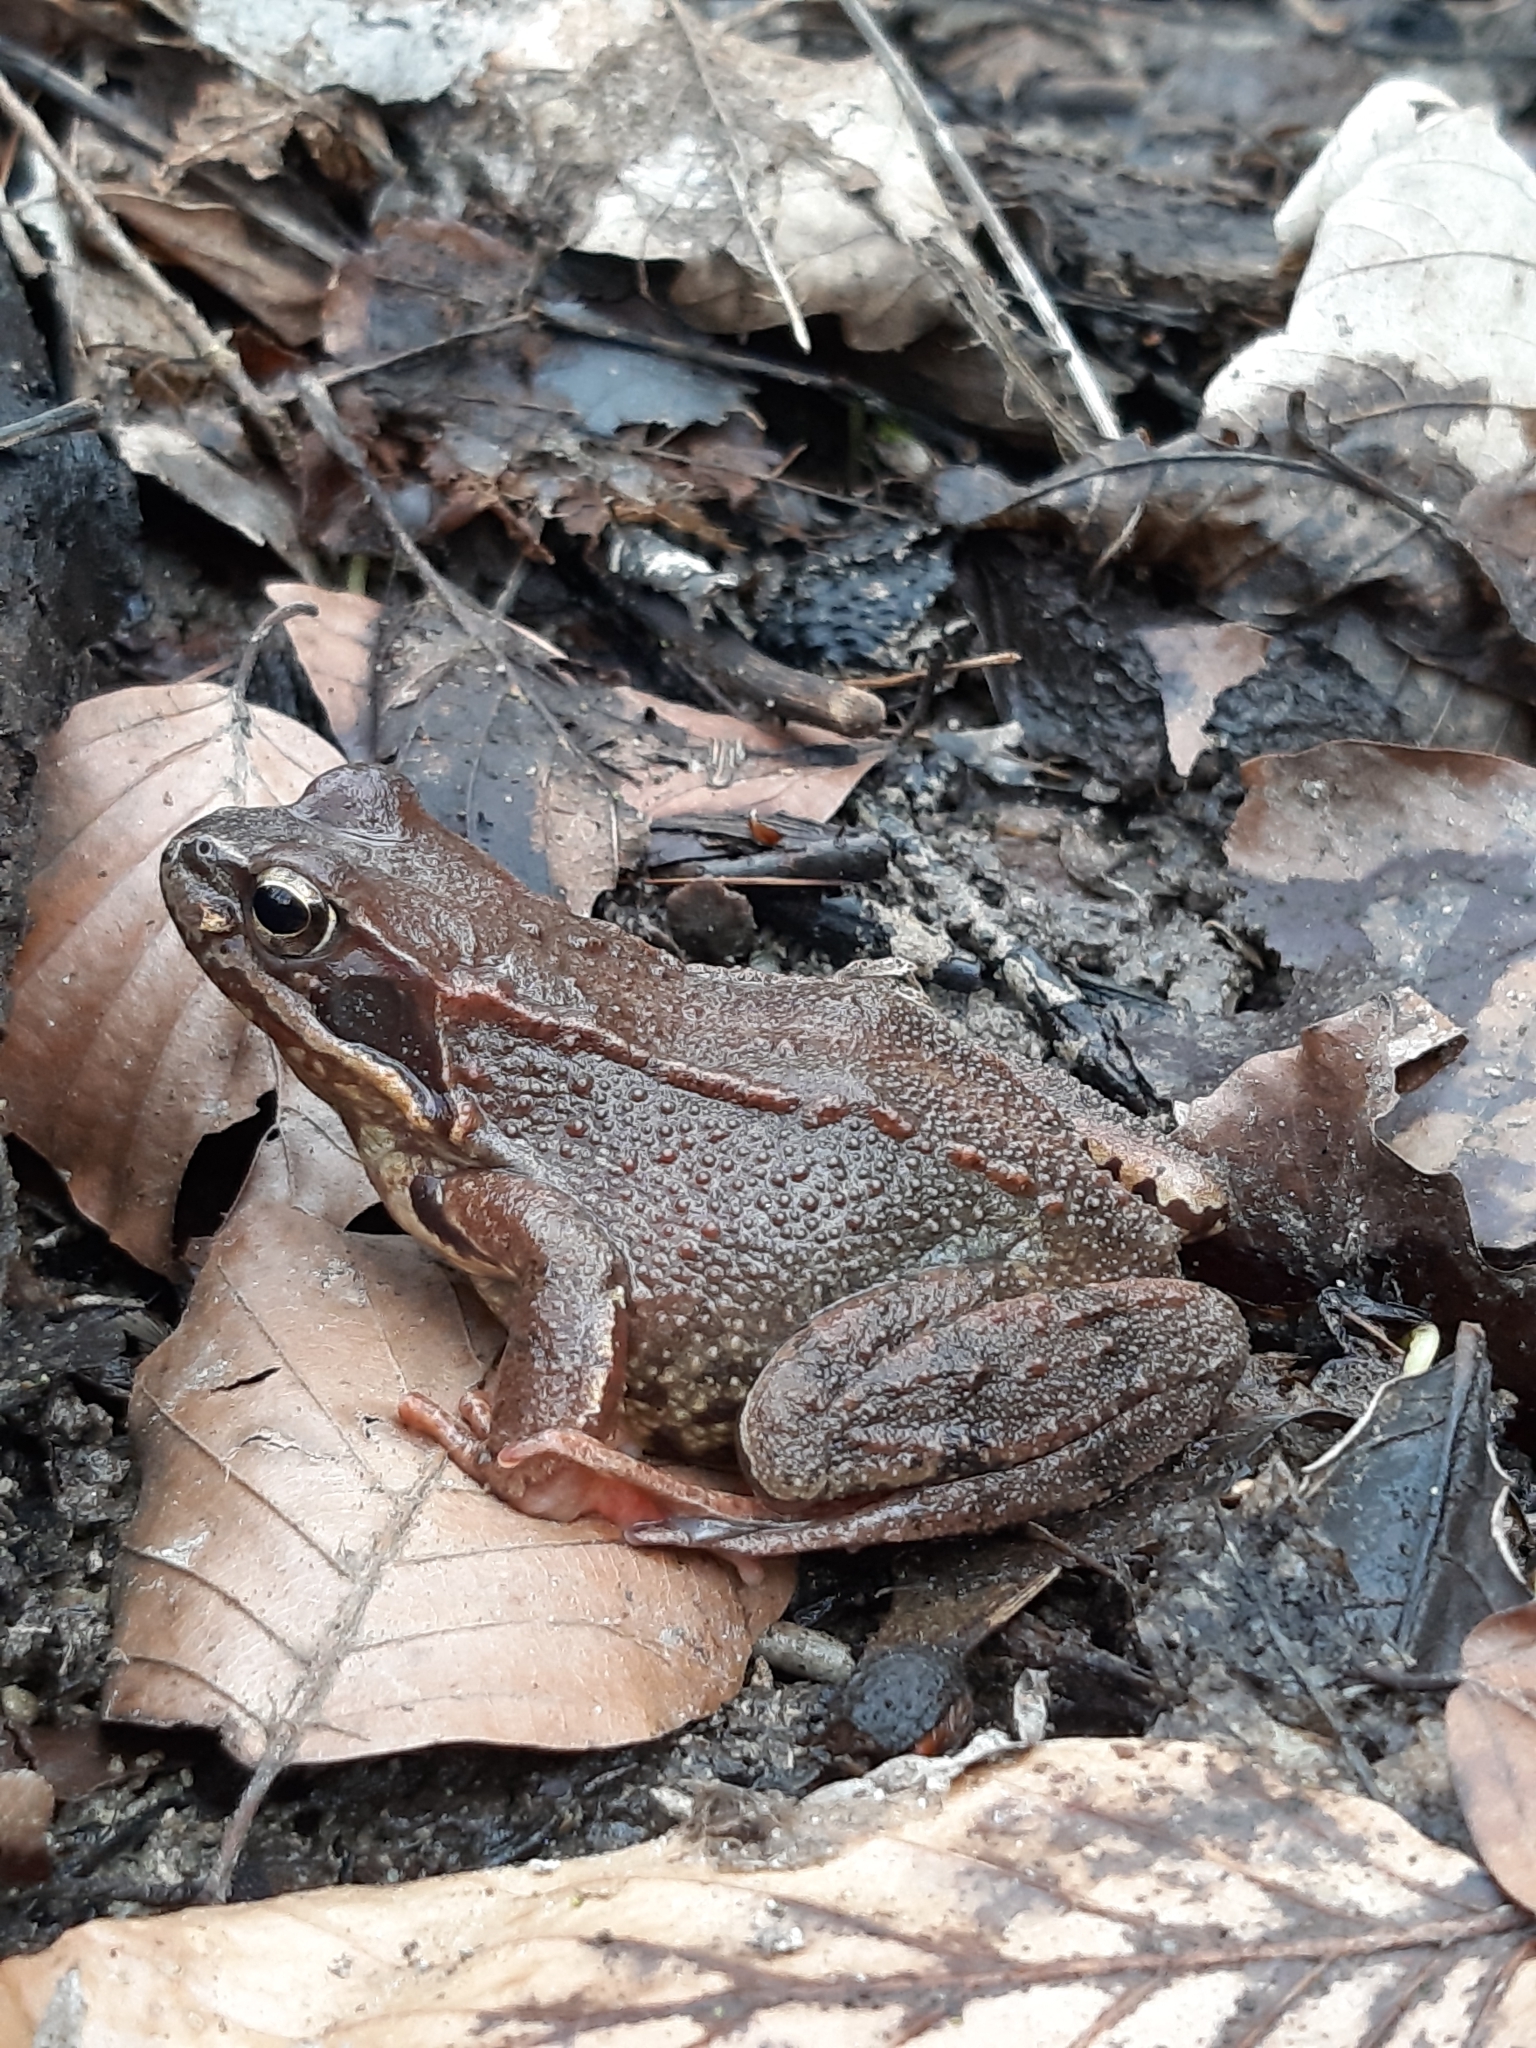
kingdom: Animalia
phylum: Chordata
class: Amphibia
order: Anura
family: Ranidae
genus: Rana
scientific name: Rana temporaria
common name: Common frog
